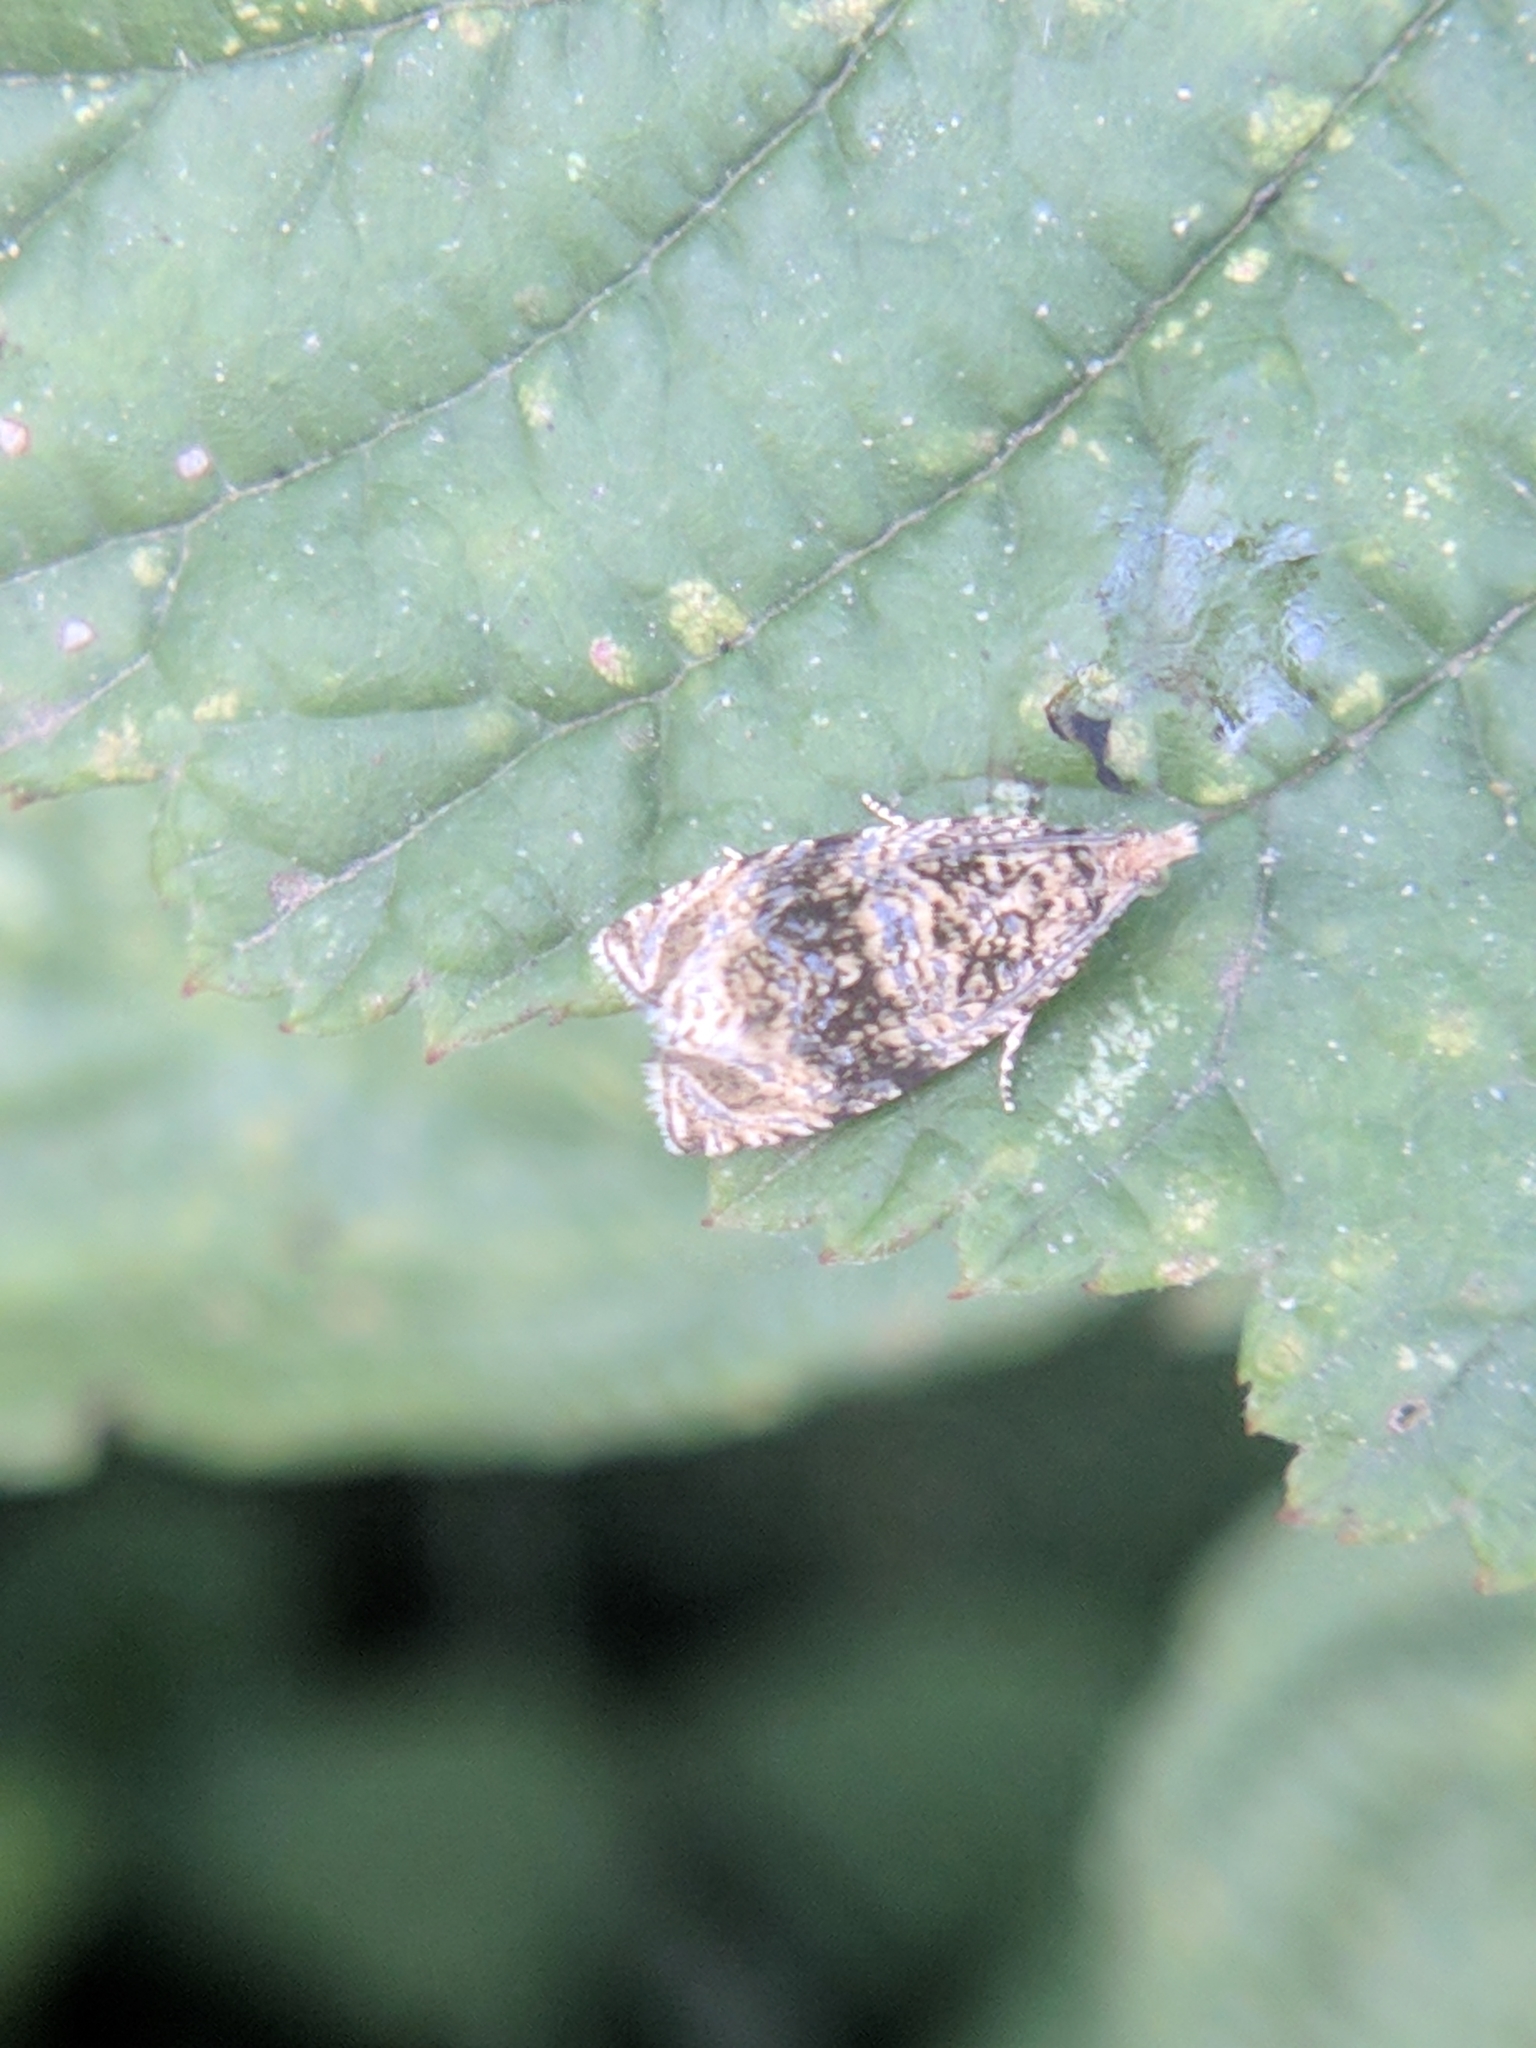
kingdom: Animalia
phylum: Arthropoda
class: Insecta
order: Lepidoptera
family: Tortricidae
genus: Syricoris
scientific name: Syricoris lacunana
